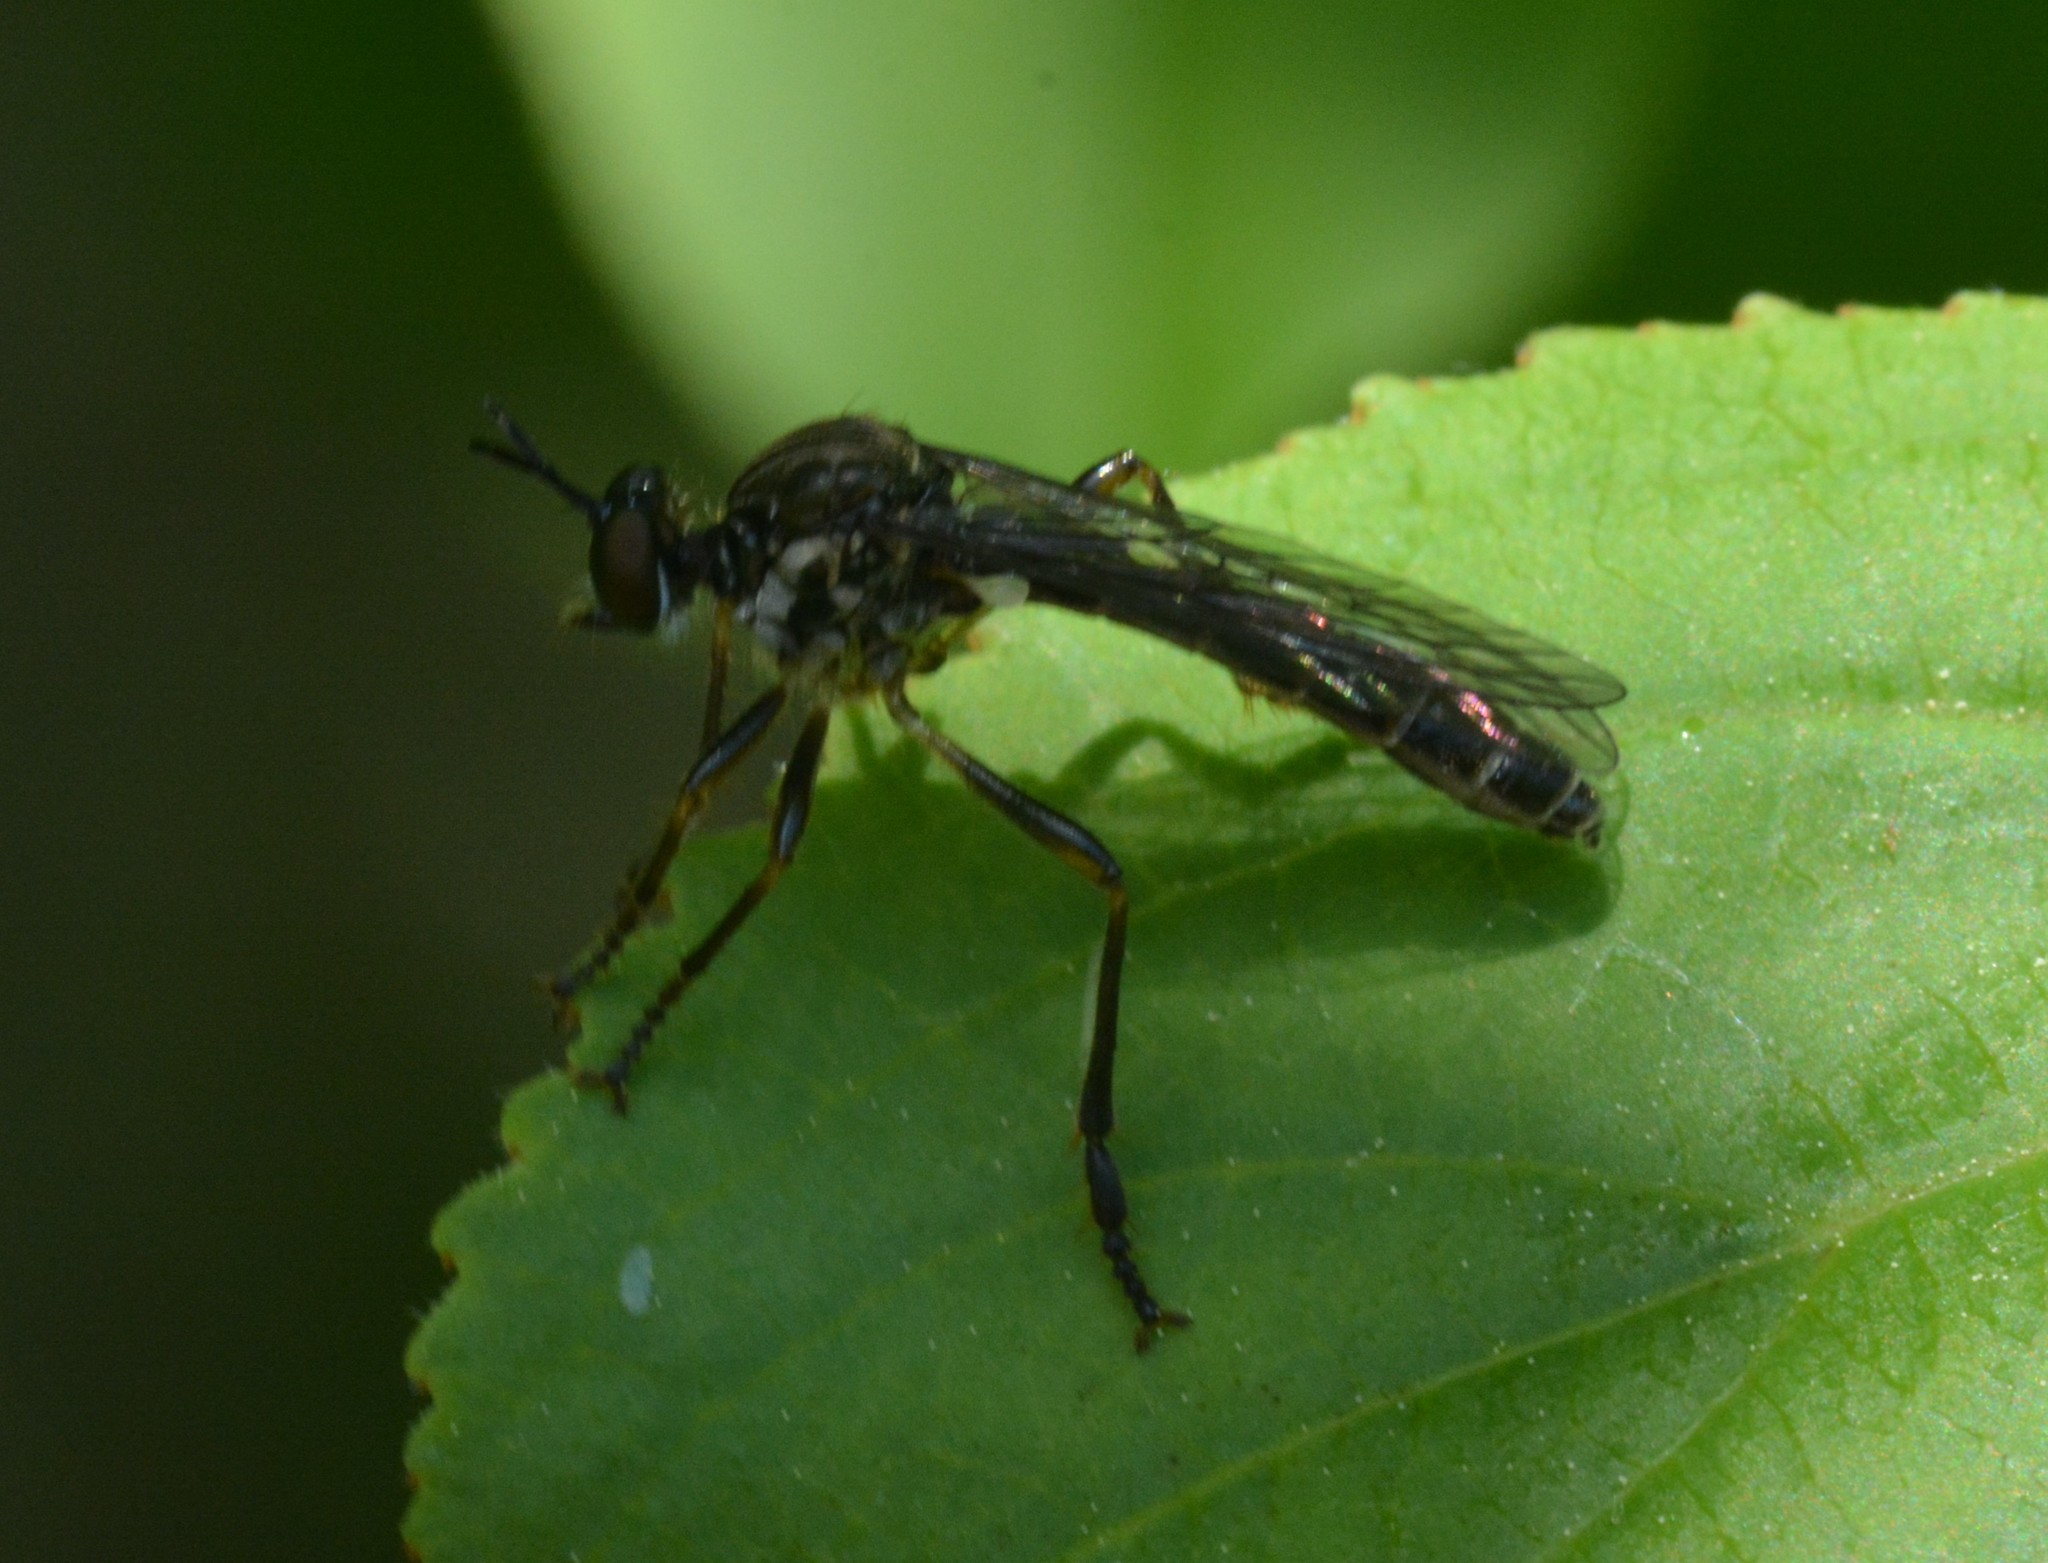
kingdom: Animalia
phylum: Arthropoda
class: Insecta
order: Diptera
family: Asilidae
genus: Dioctria
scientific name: Dioctria hyalipennis
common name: Stripe-legged robberfly
